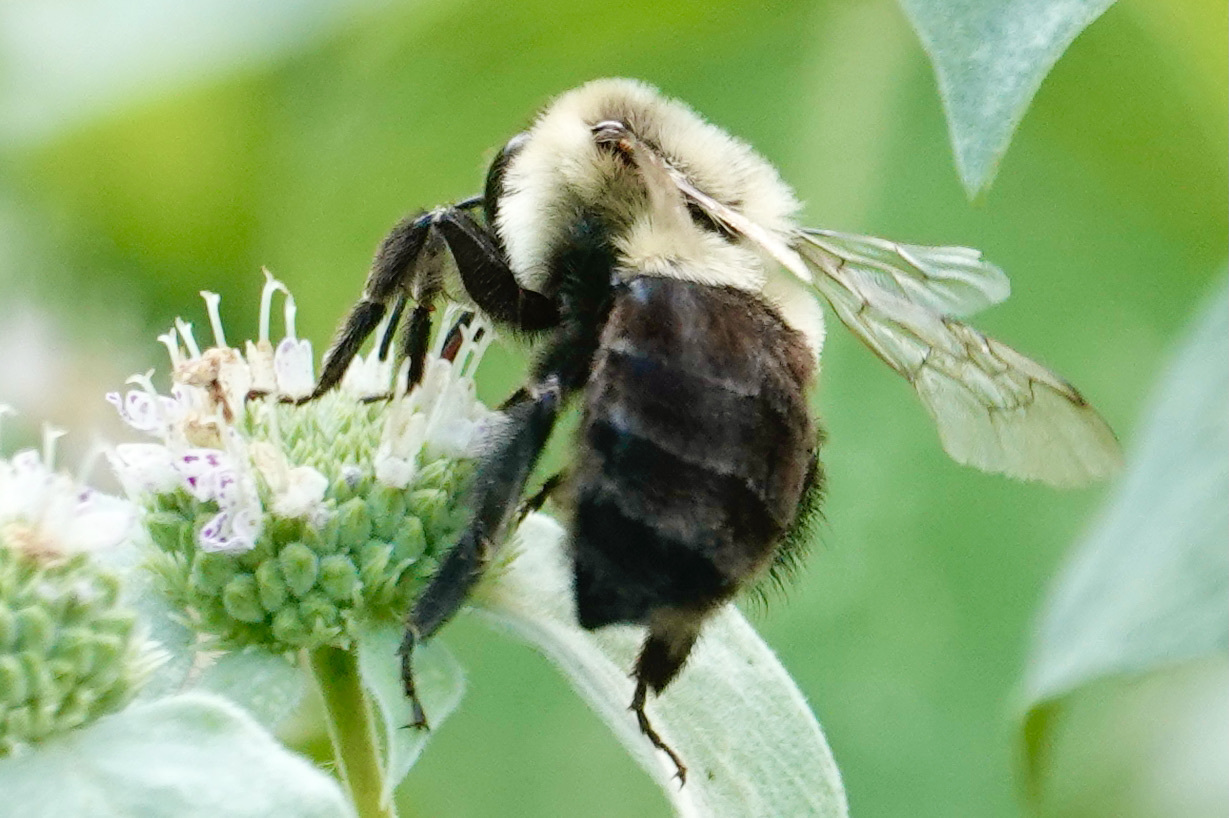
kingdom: Animalia
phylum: Arthropoda
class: Insecta
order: Hymenoptera
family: Apidae
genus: Bombus
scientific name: Bombus impatiens
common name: Common eastern bumble bee
